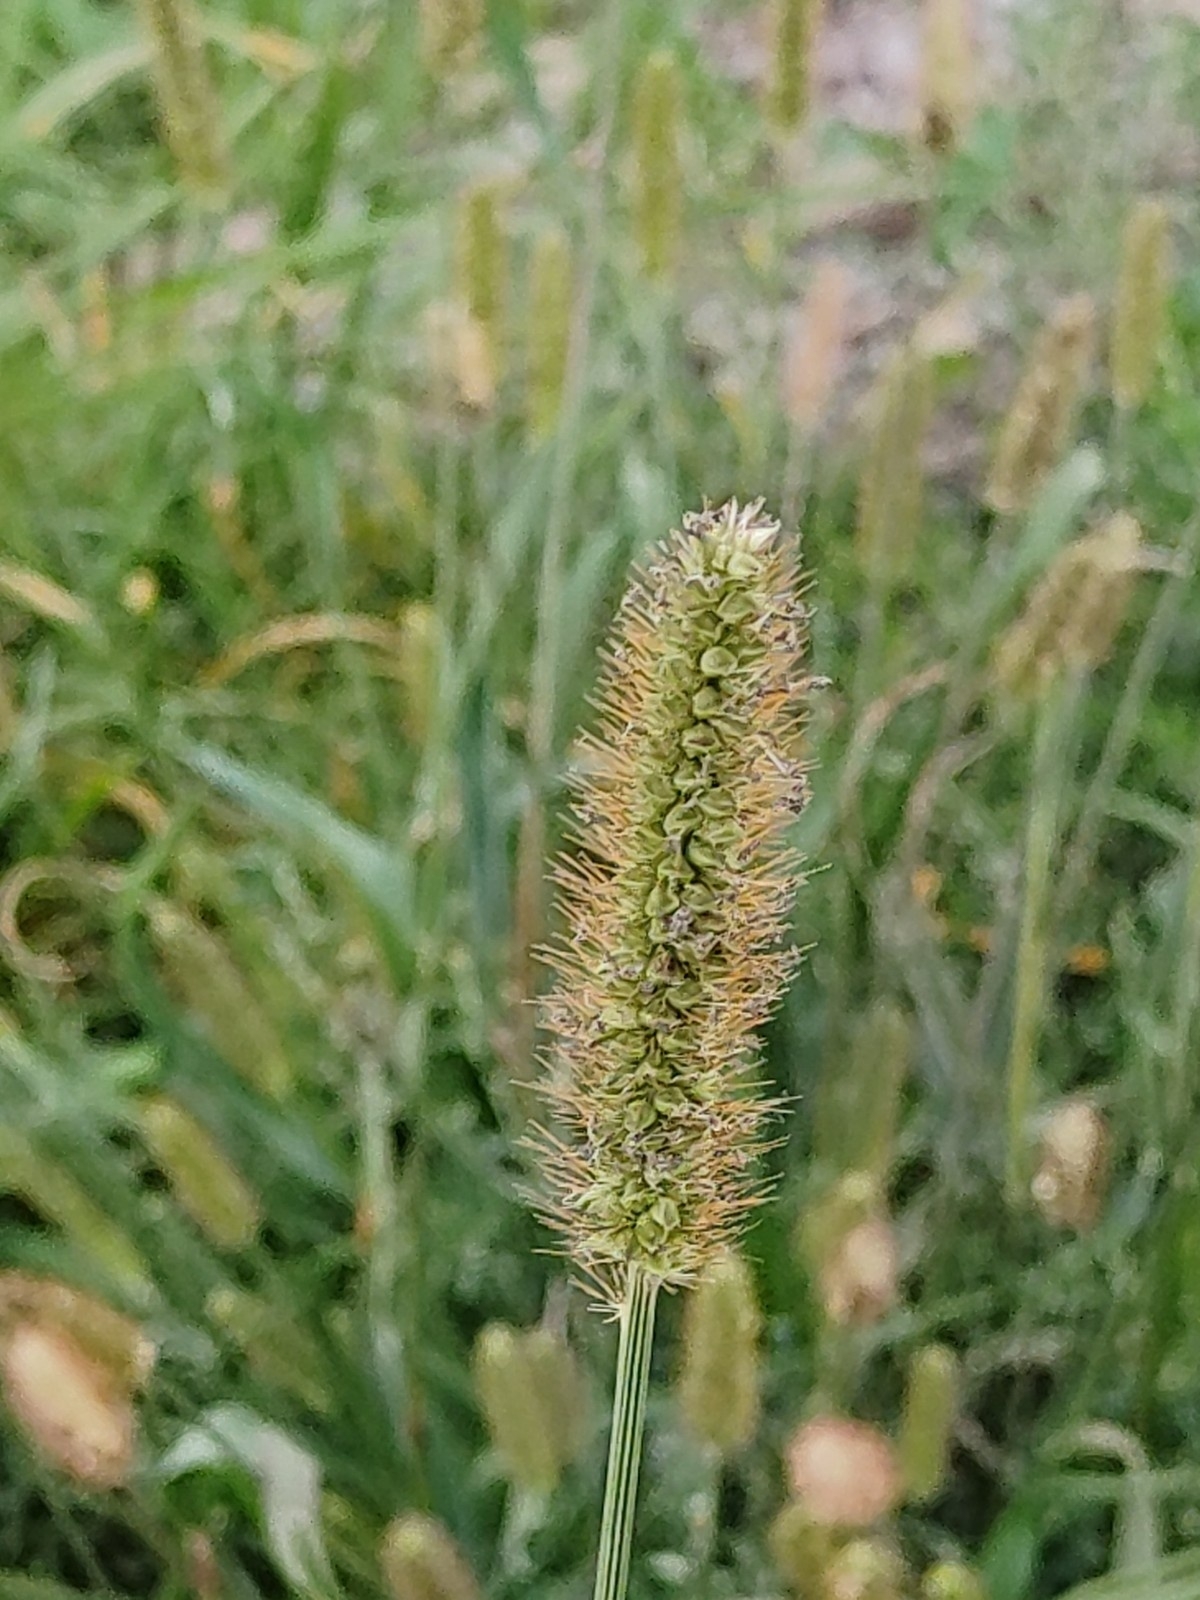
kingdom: Plantae
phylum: Tracheophyta
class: Liliopsida
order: Poales
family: Poaceae
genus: Setaria
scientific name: Setaria pumila
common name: Yellow bristle-grass
